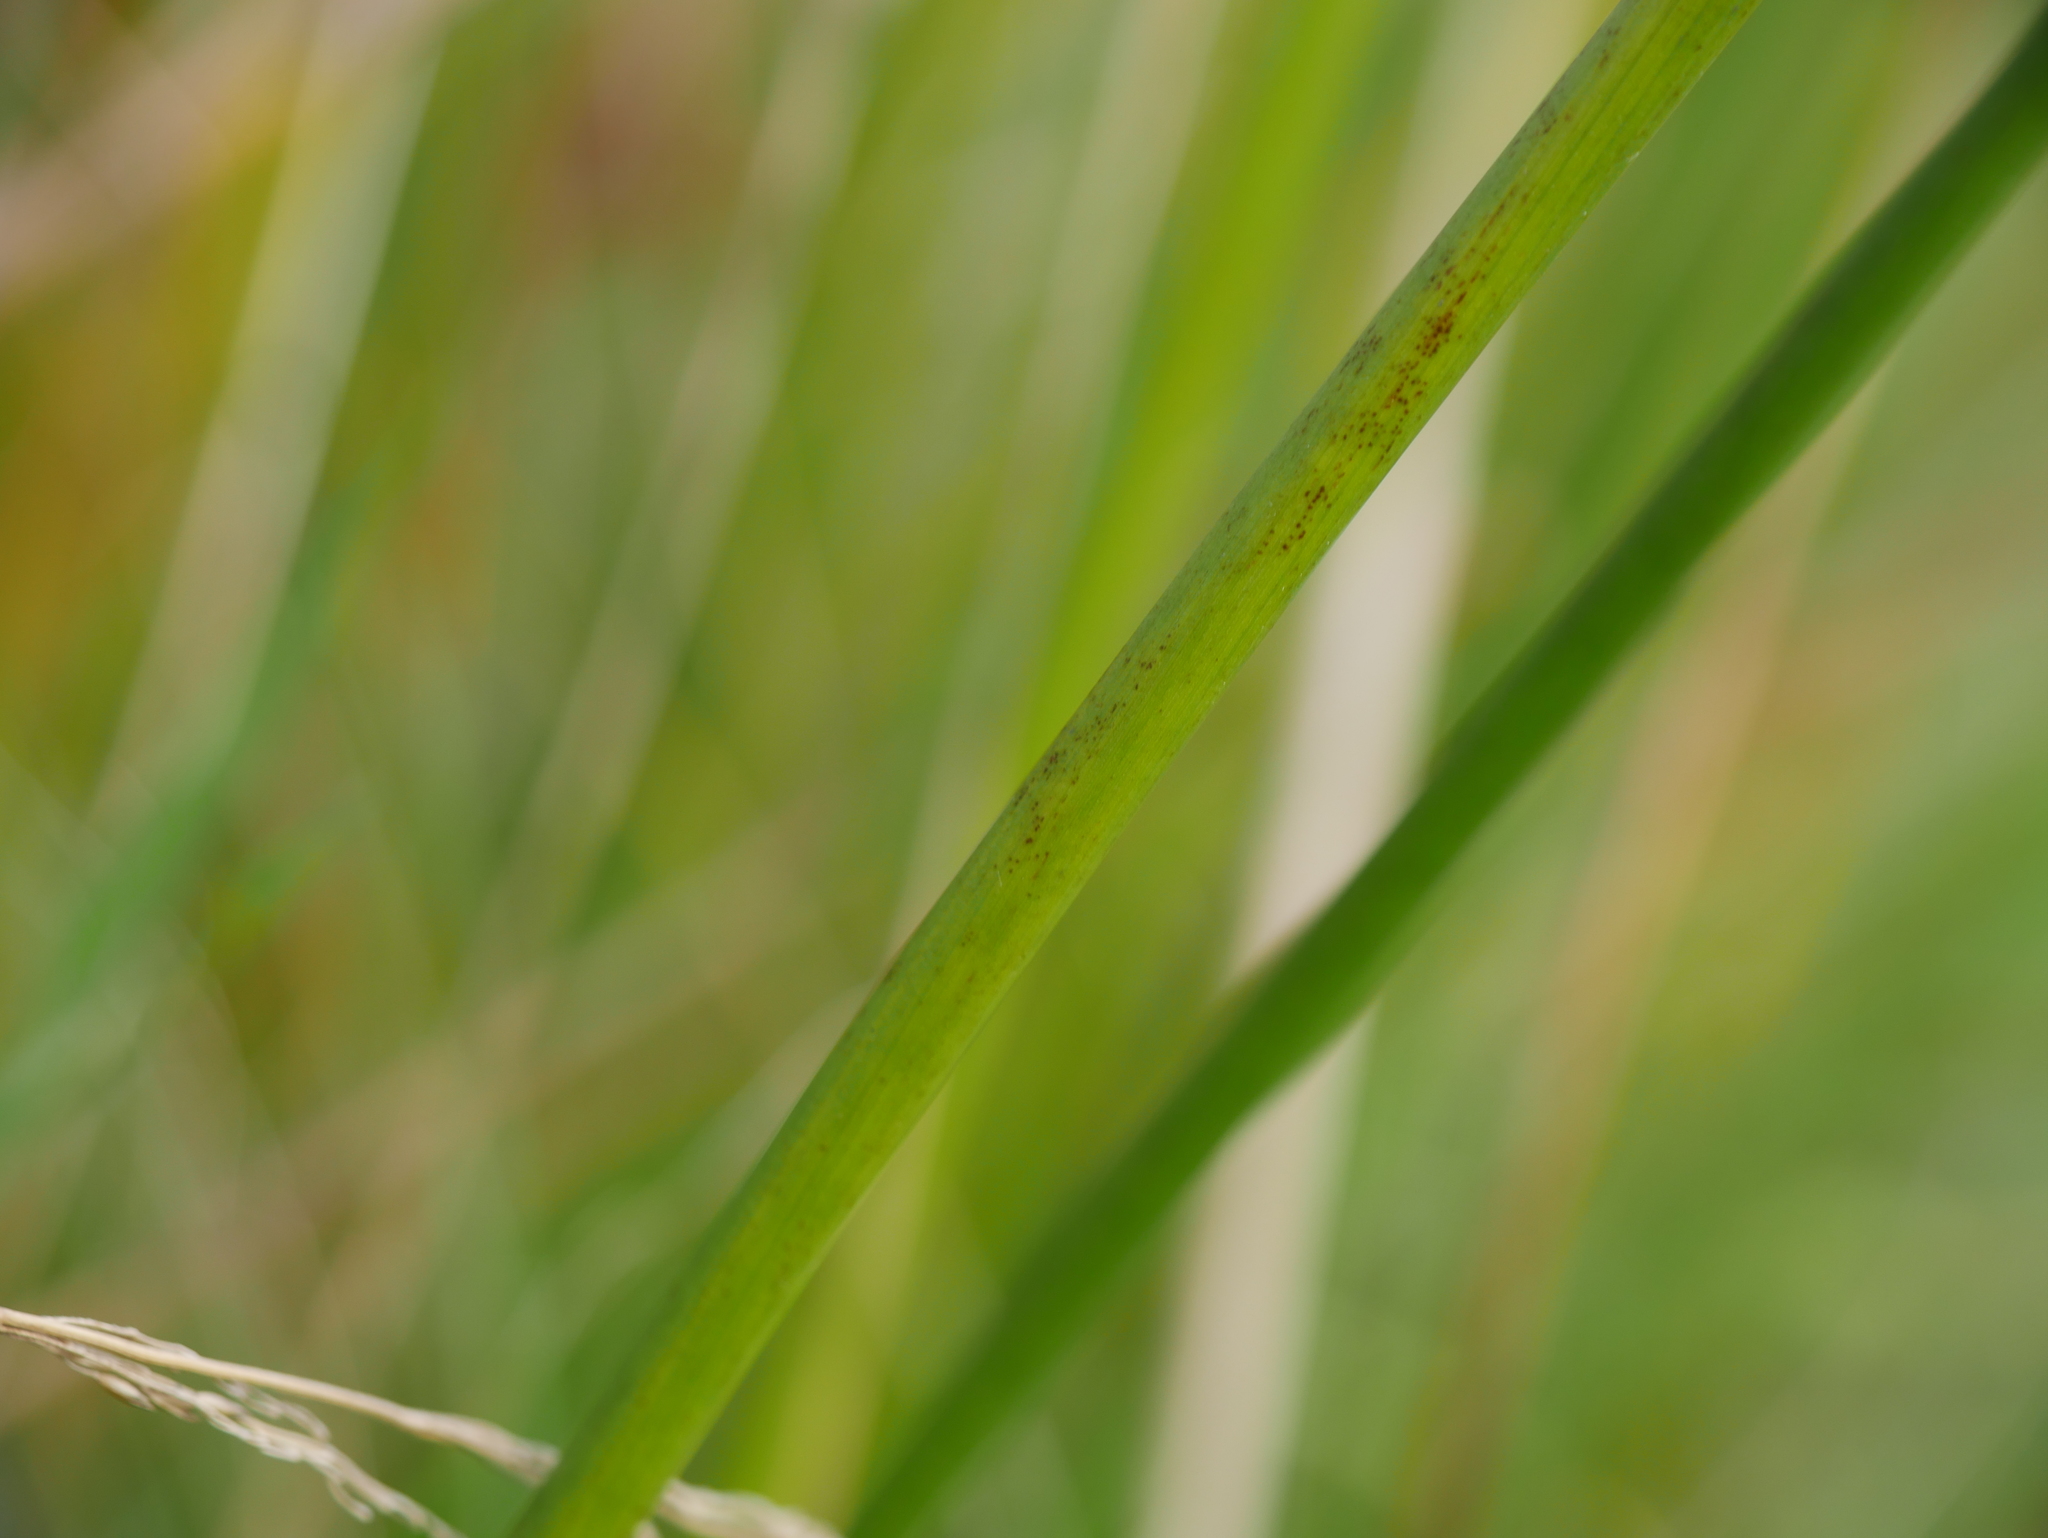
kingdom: Plantae
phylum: Tracheophyta
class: Liliopsida
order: Poales
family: Juncaceae
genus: Juncus
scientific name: Juncus effusus
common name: Soft rush
